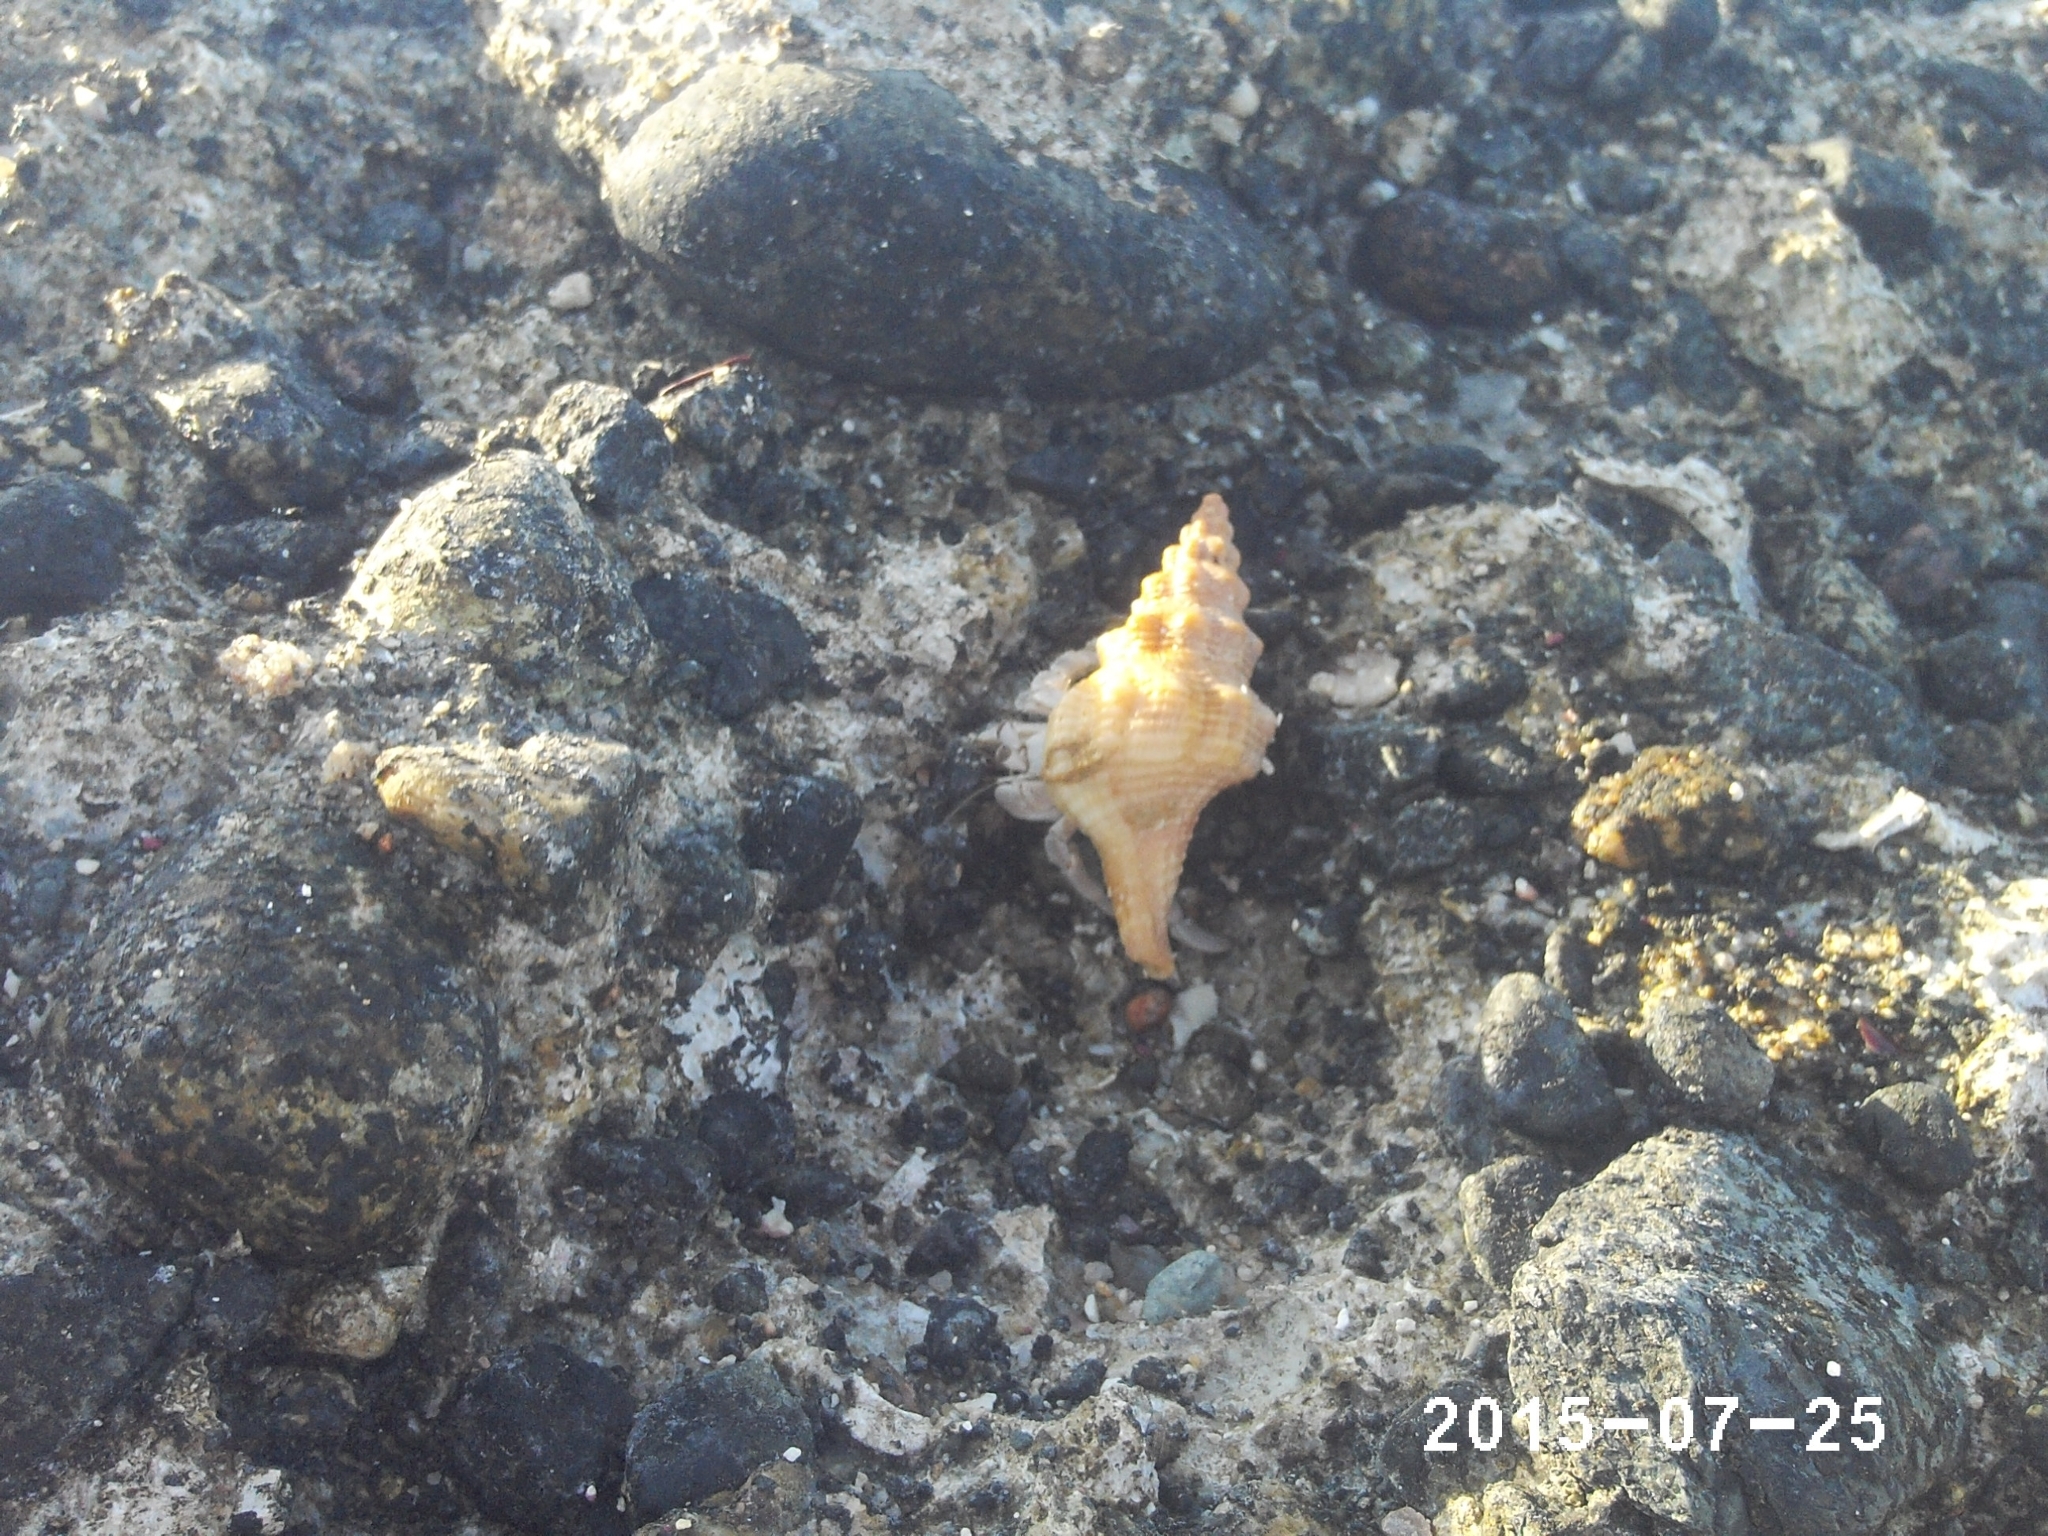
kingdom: Animalia
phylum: Arthropoda
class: Malacostraca
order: Decapoda
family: Coenobitidae
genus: Coenobita
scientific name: Coenobita scaevola
